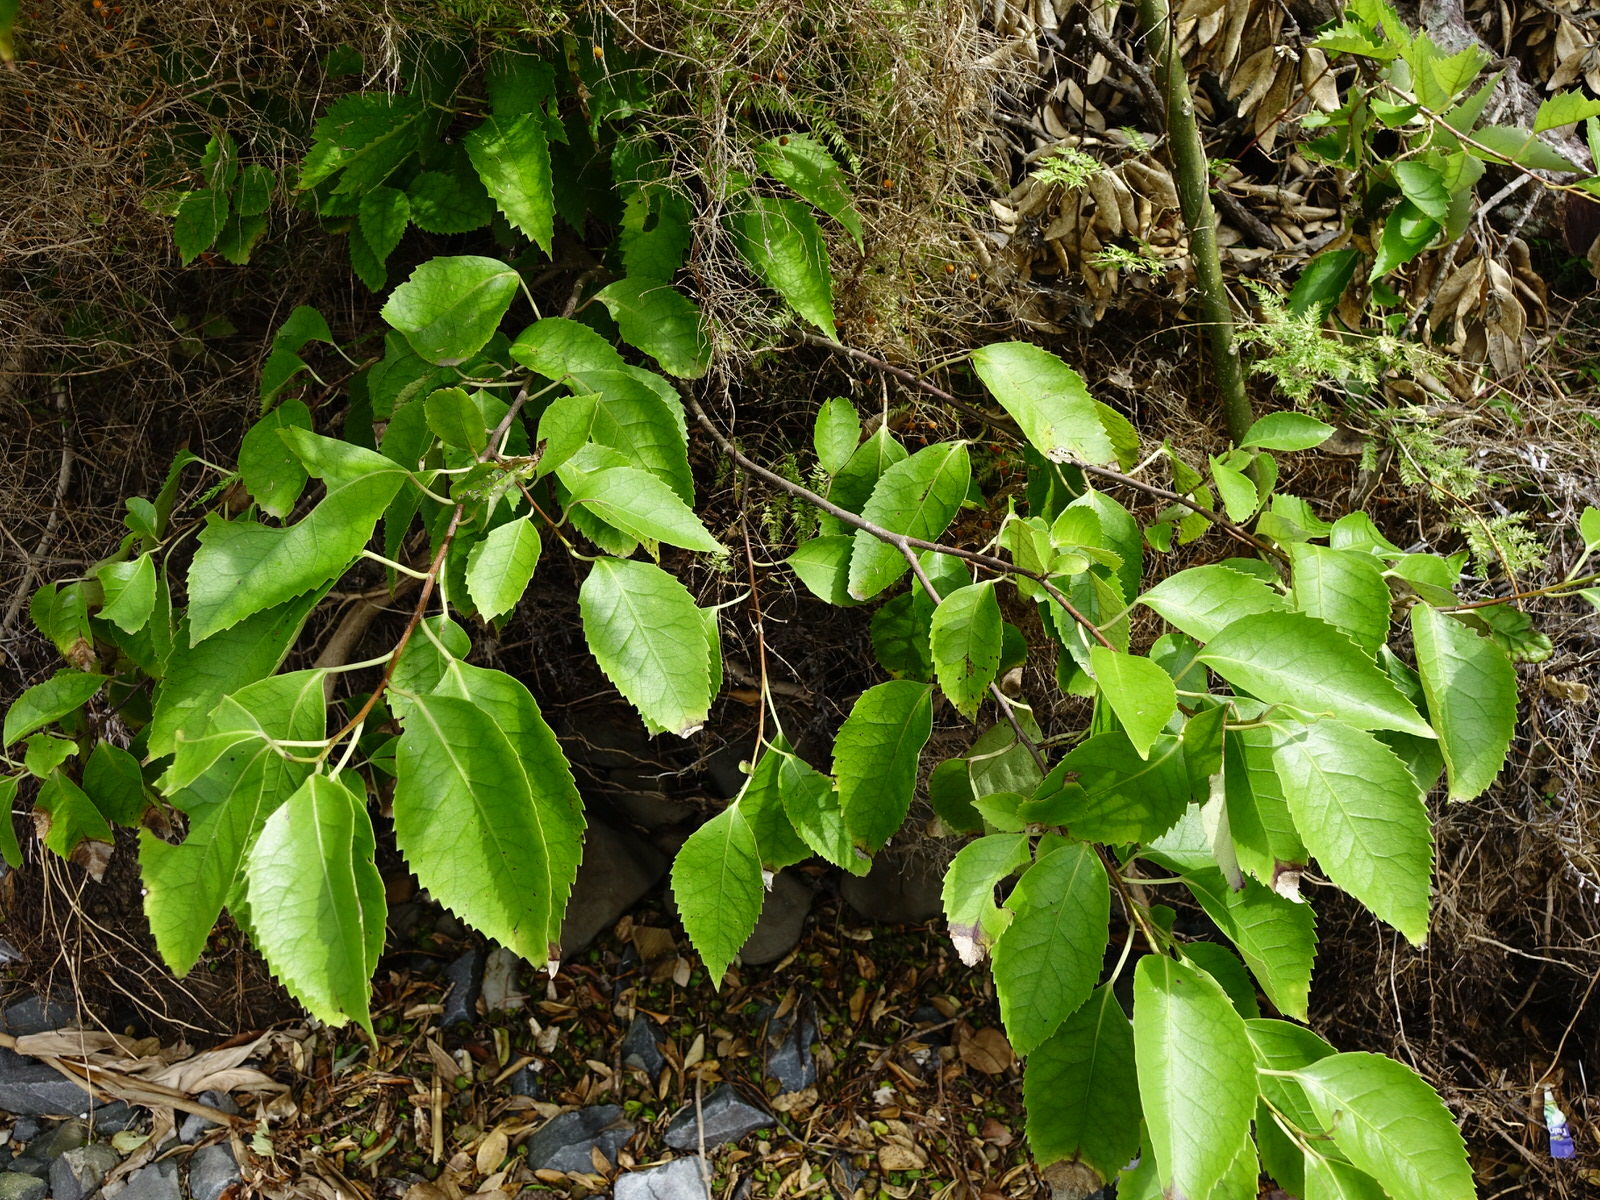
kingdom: Plantae
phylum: Tracheophyta
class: Magnoliopsida
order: Malvales
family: Malvaceae
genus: Hoheria
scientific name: Hoheria populnea
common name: Lacebark
